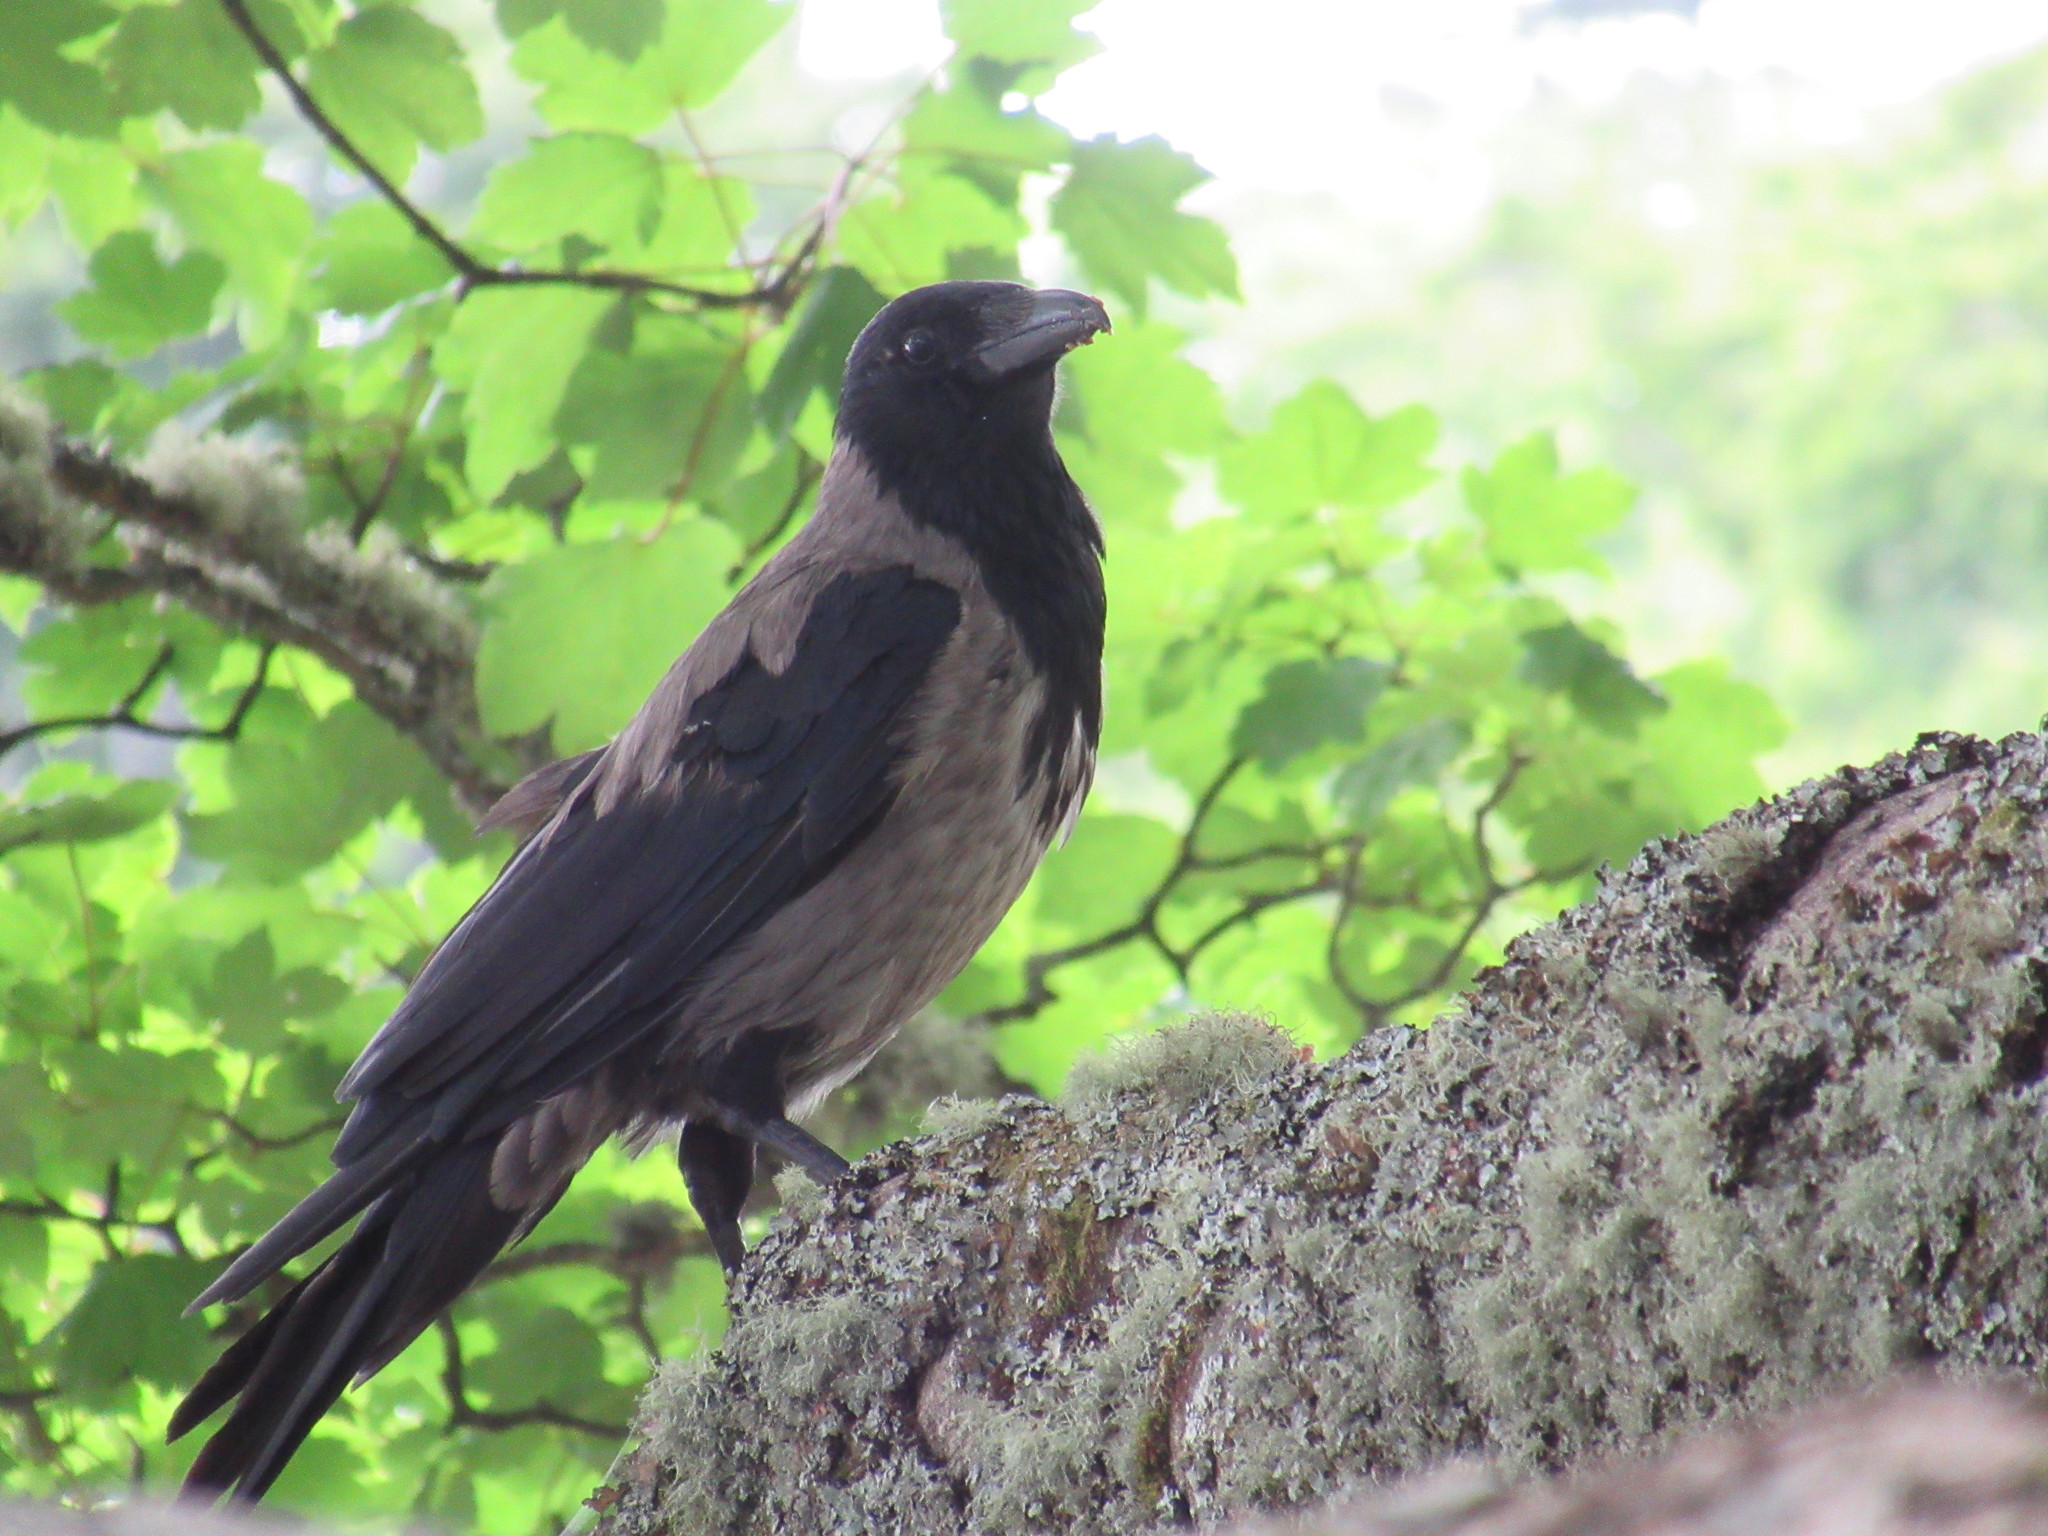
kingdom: Animalia
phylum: Chordata
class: Aves
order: Passeriformes
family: Corvidae
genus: Corvus
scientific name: Corvus cornix
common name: Hooded crow
